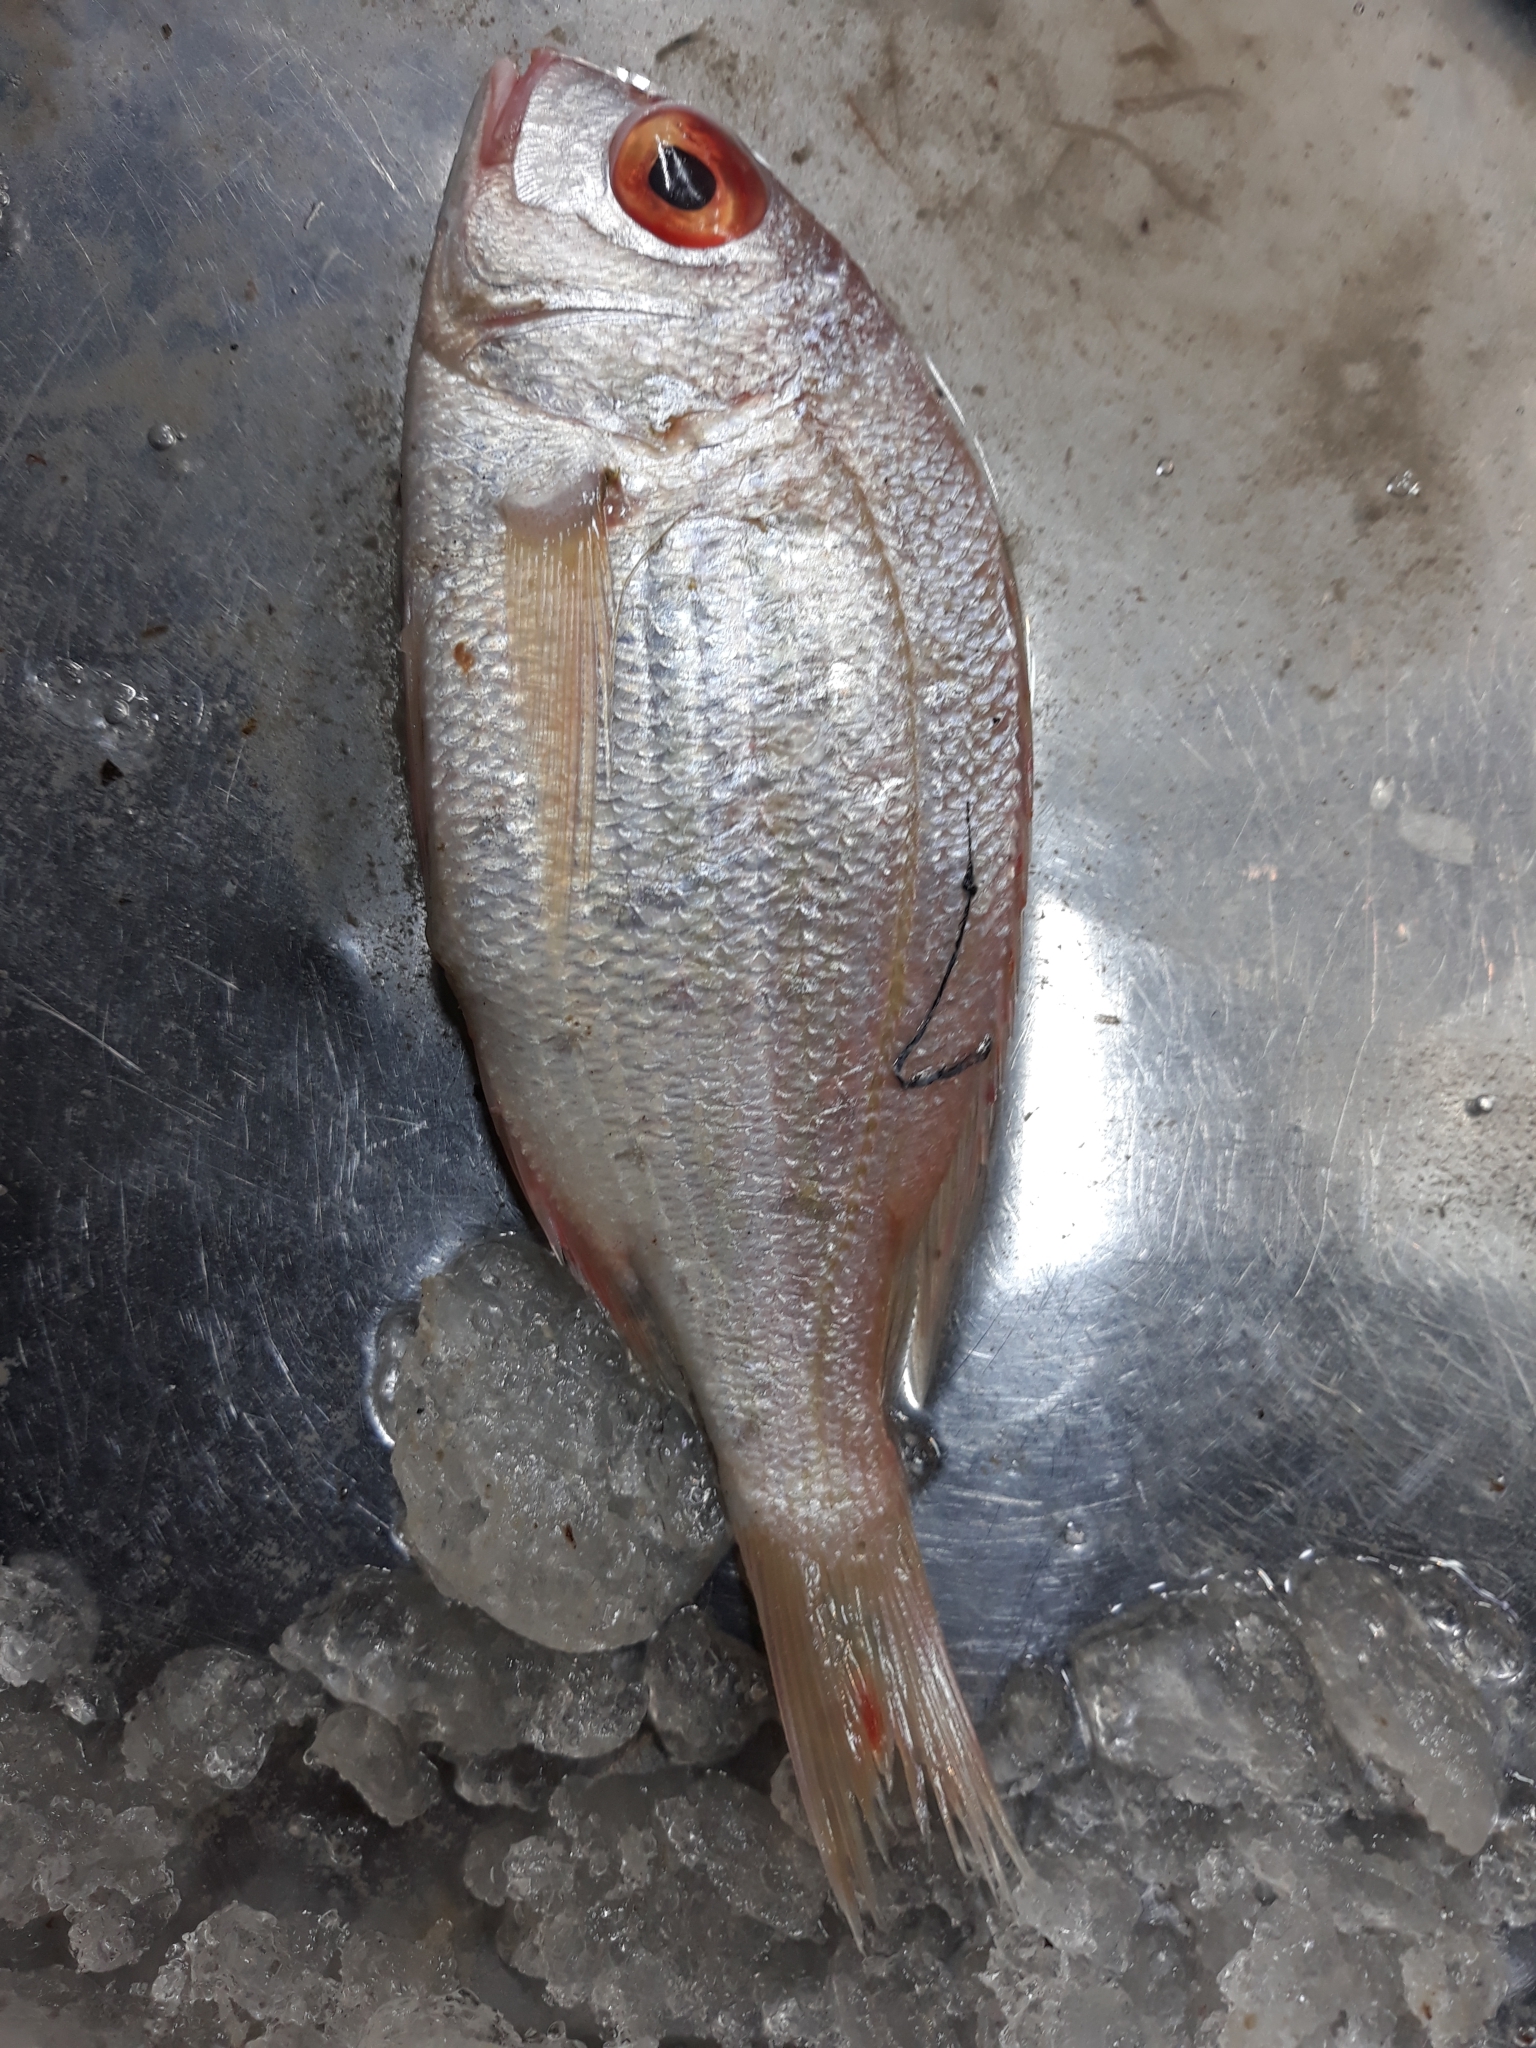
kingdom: Animalia
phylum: Chordata
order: Perciformes
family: Sparidae
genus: Pagellus
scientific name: Pagellus bellottii
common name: Red pandora
